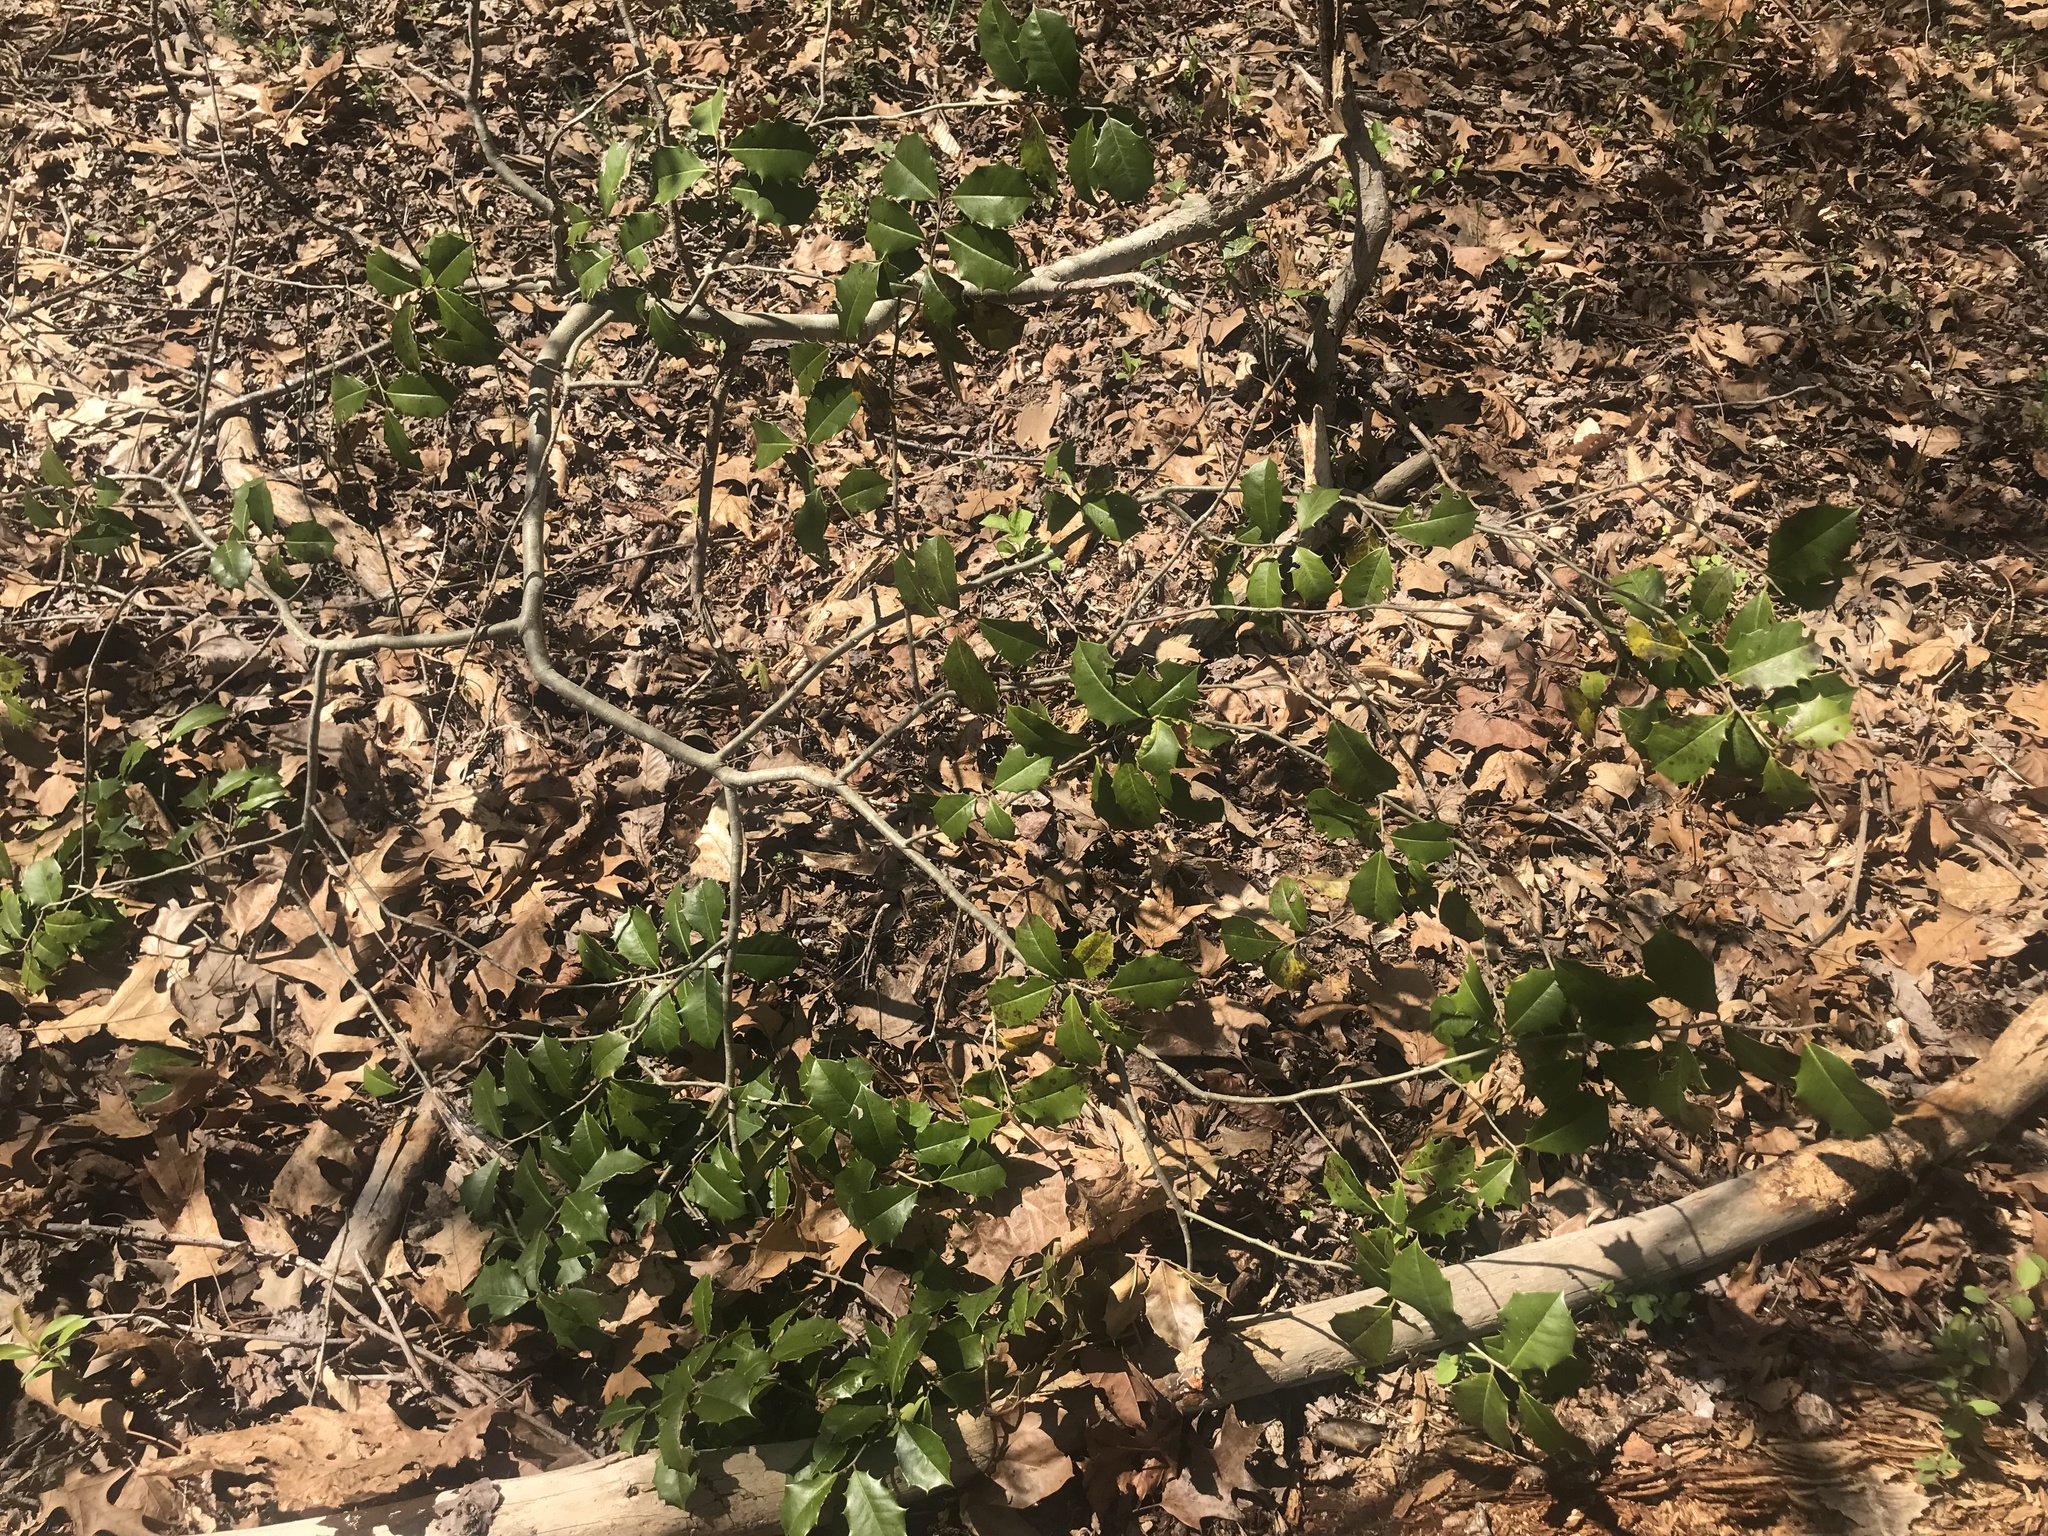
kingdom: Plantae
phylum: Tracheophyta
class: Magnoliopsida
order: Aquifoliales
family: Aquifoliaceae
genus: Ilex
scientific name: Ilex opaca
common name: American holly
